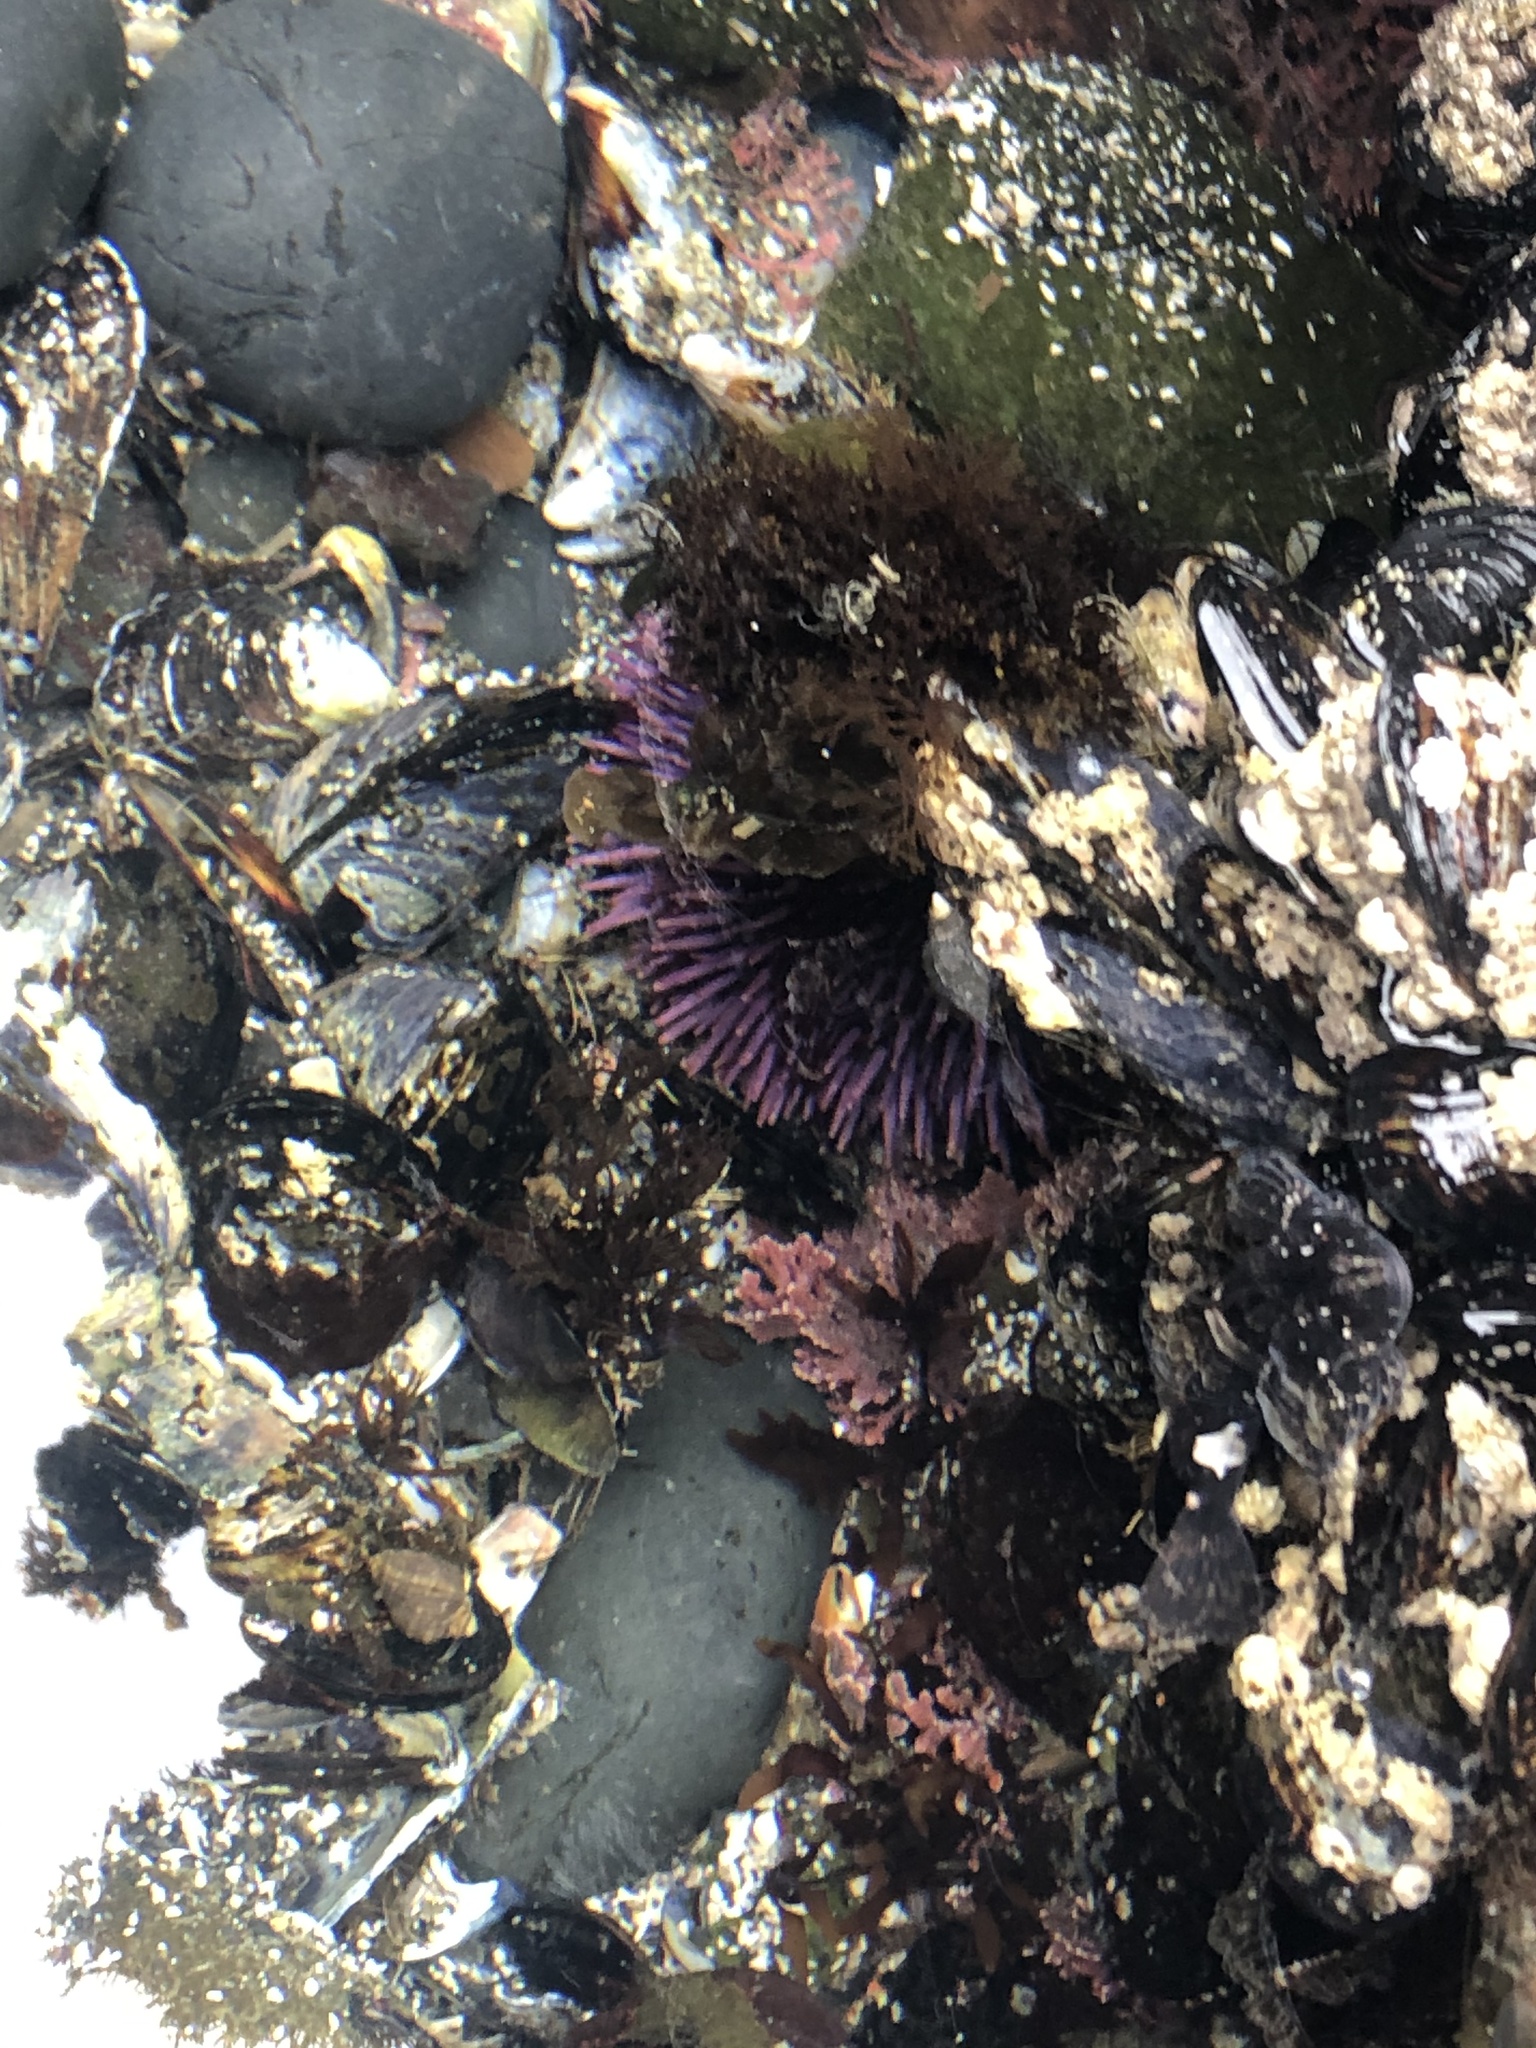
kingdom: Animalia
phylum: Echinodermata
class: Echinoidea
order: Camarodonta
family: Strongylocentrotidae
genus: Strongylocentrotus
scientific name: Strongylocentrotus purpuratus
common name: Purple sea urchin
